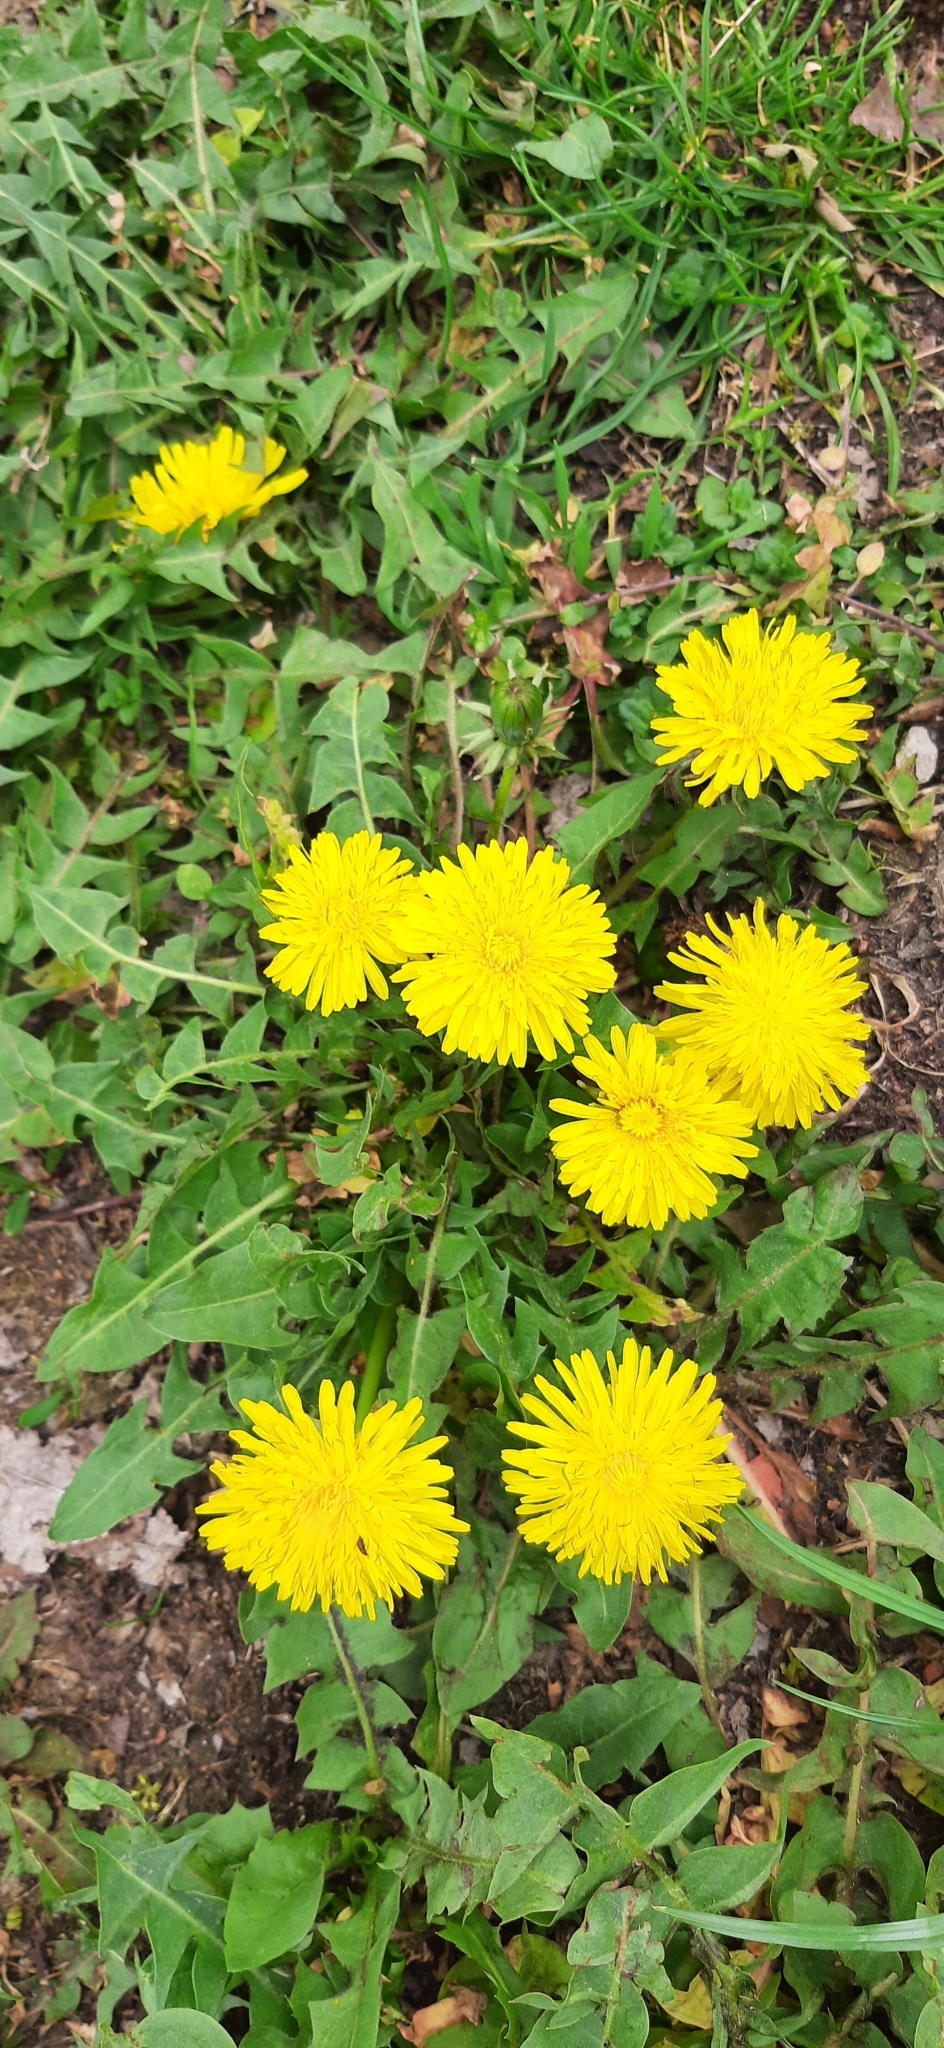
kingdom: Plantae
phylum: Tracheophyta
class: Magnoliopsida
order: Asterales
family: Asteraceae
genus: Taraxacum
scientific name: Taraxacum officinale
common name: Common dandelion
